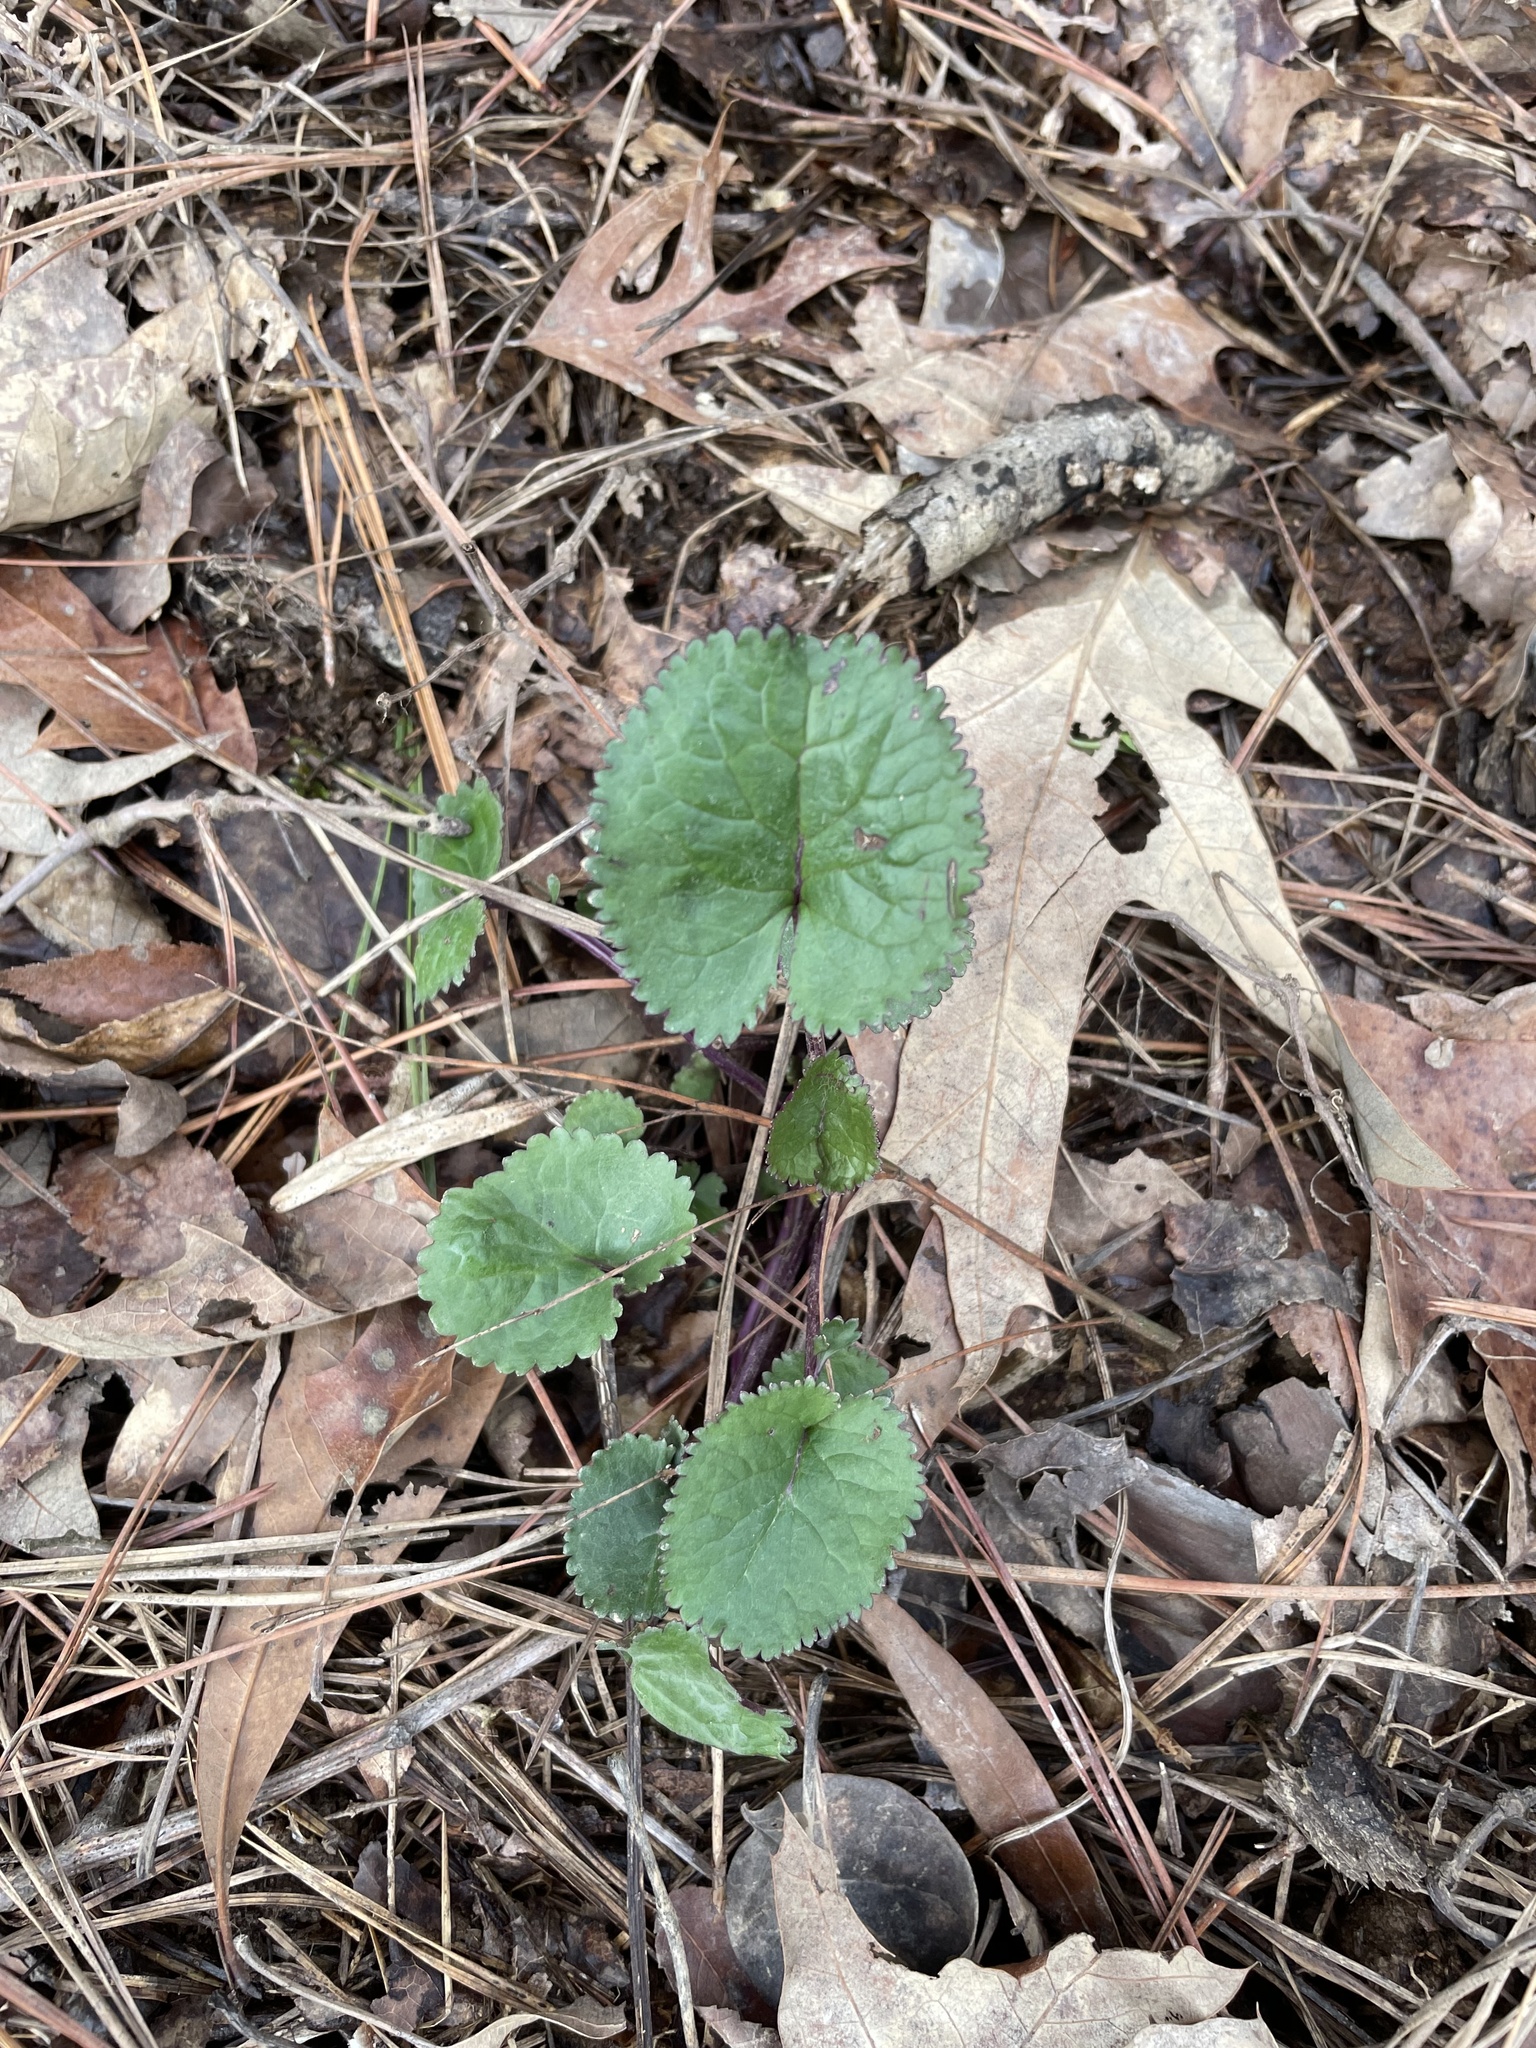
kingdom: Plantae
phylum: Tracheophyta
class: Magnoliopsida
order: Asterales
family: Asteraceae
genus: Packera
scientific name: Packera aurea
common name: Golden groundsel
